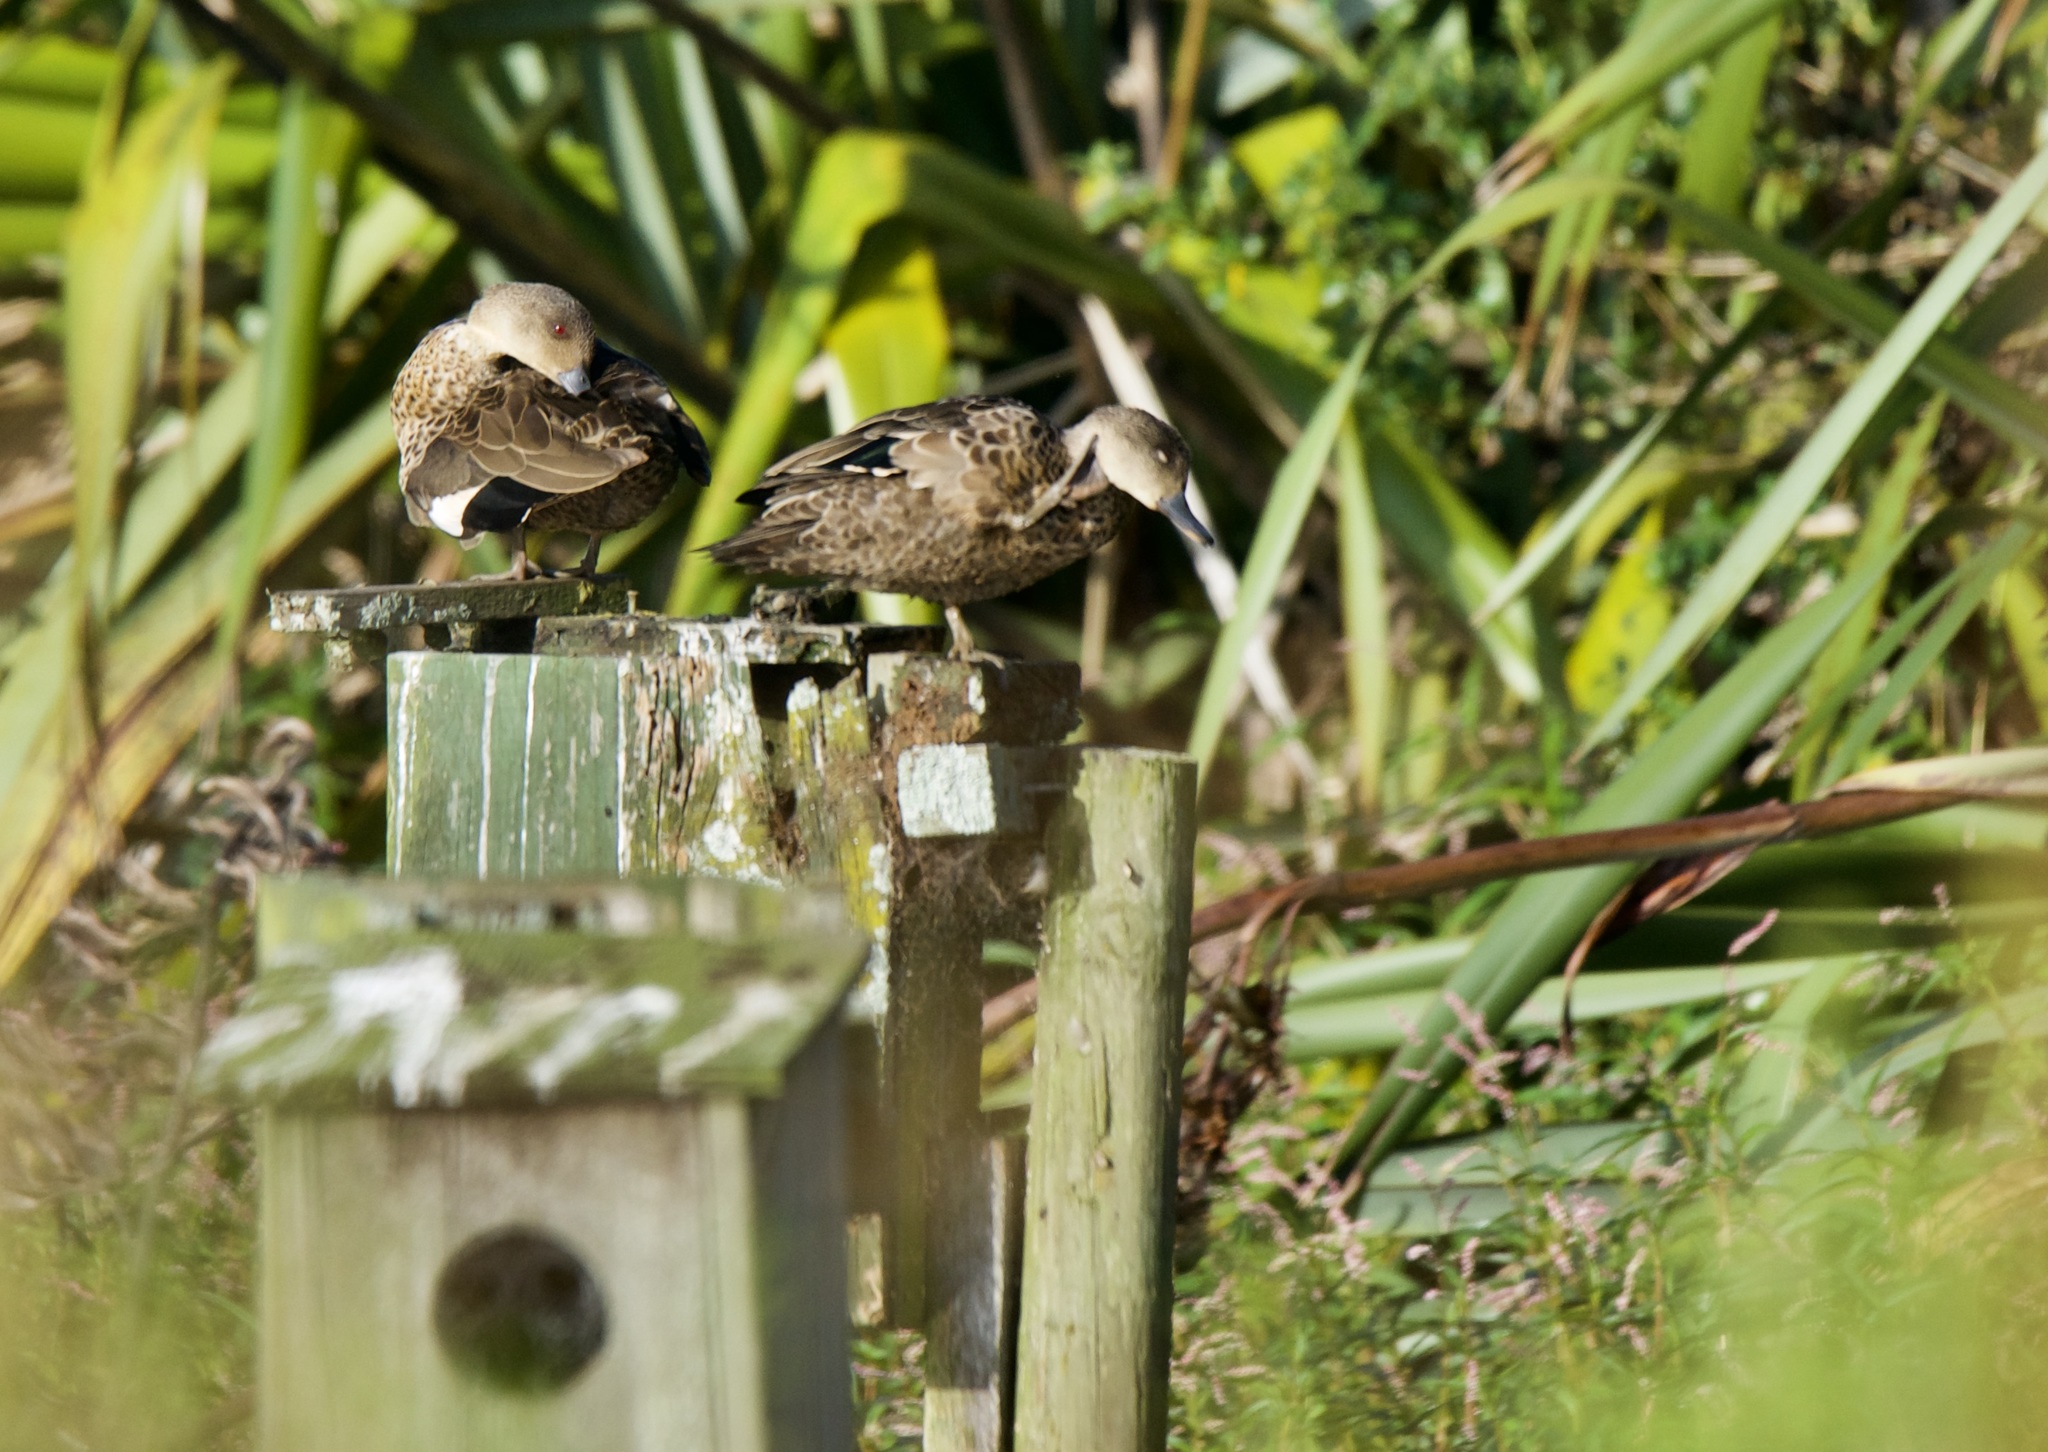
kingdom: Animalia
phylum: Chordata
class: Aves
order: Anseriformes
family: Anatidae
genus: Anas
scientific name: Anas gracilis
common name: Grey teal
